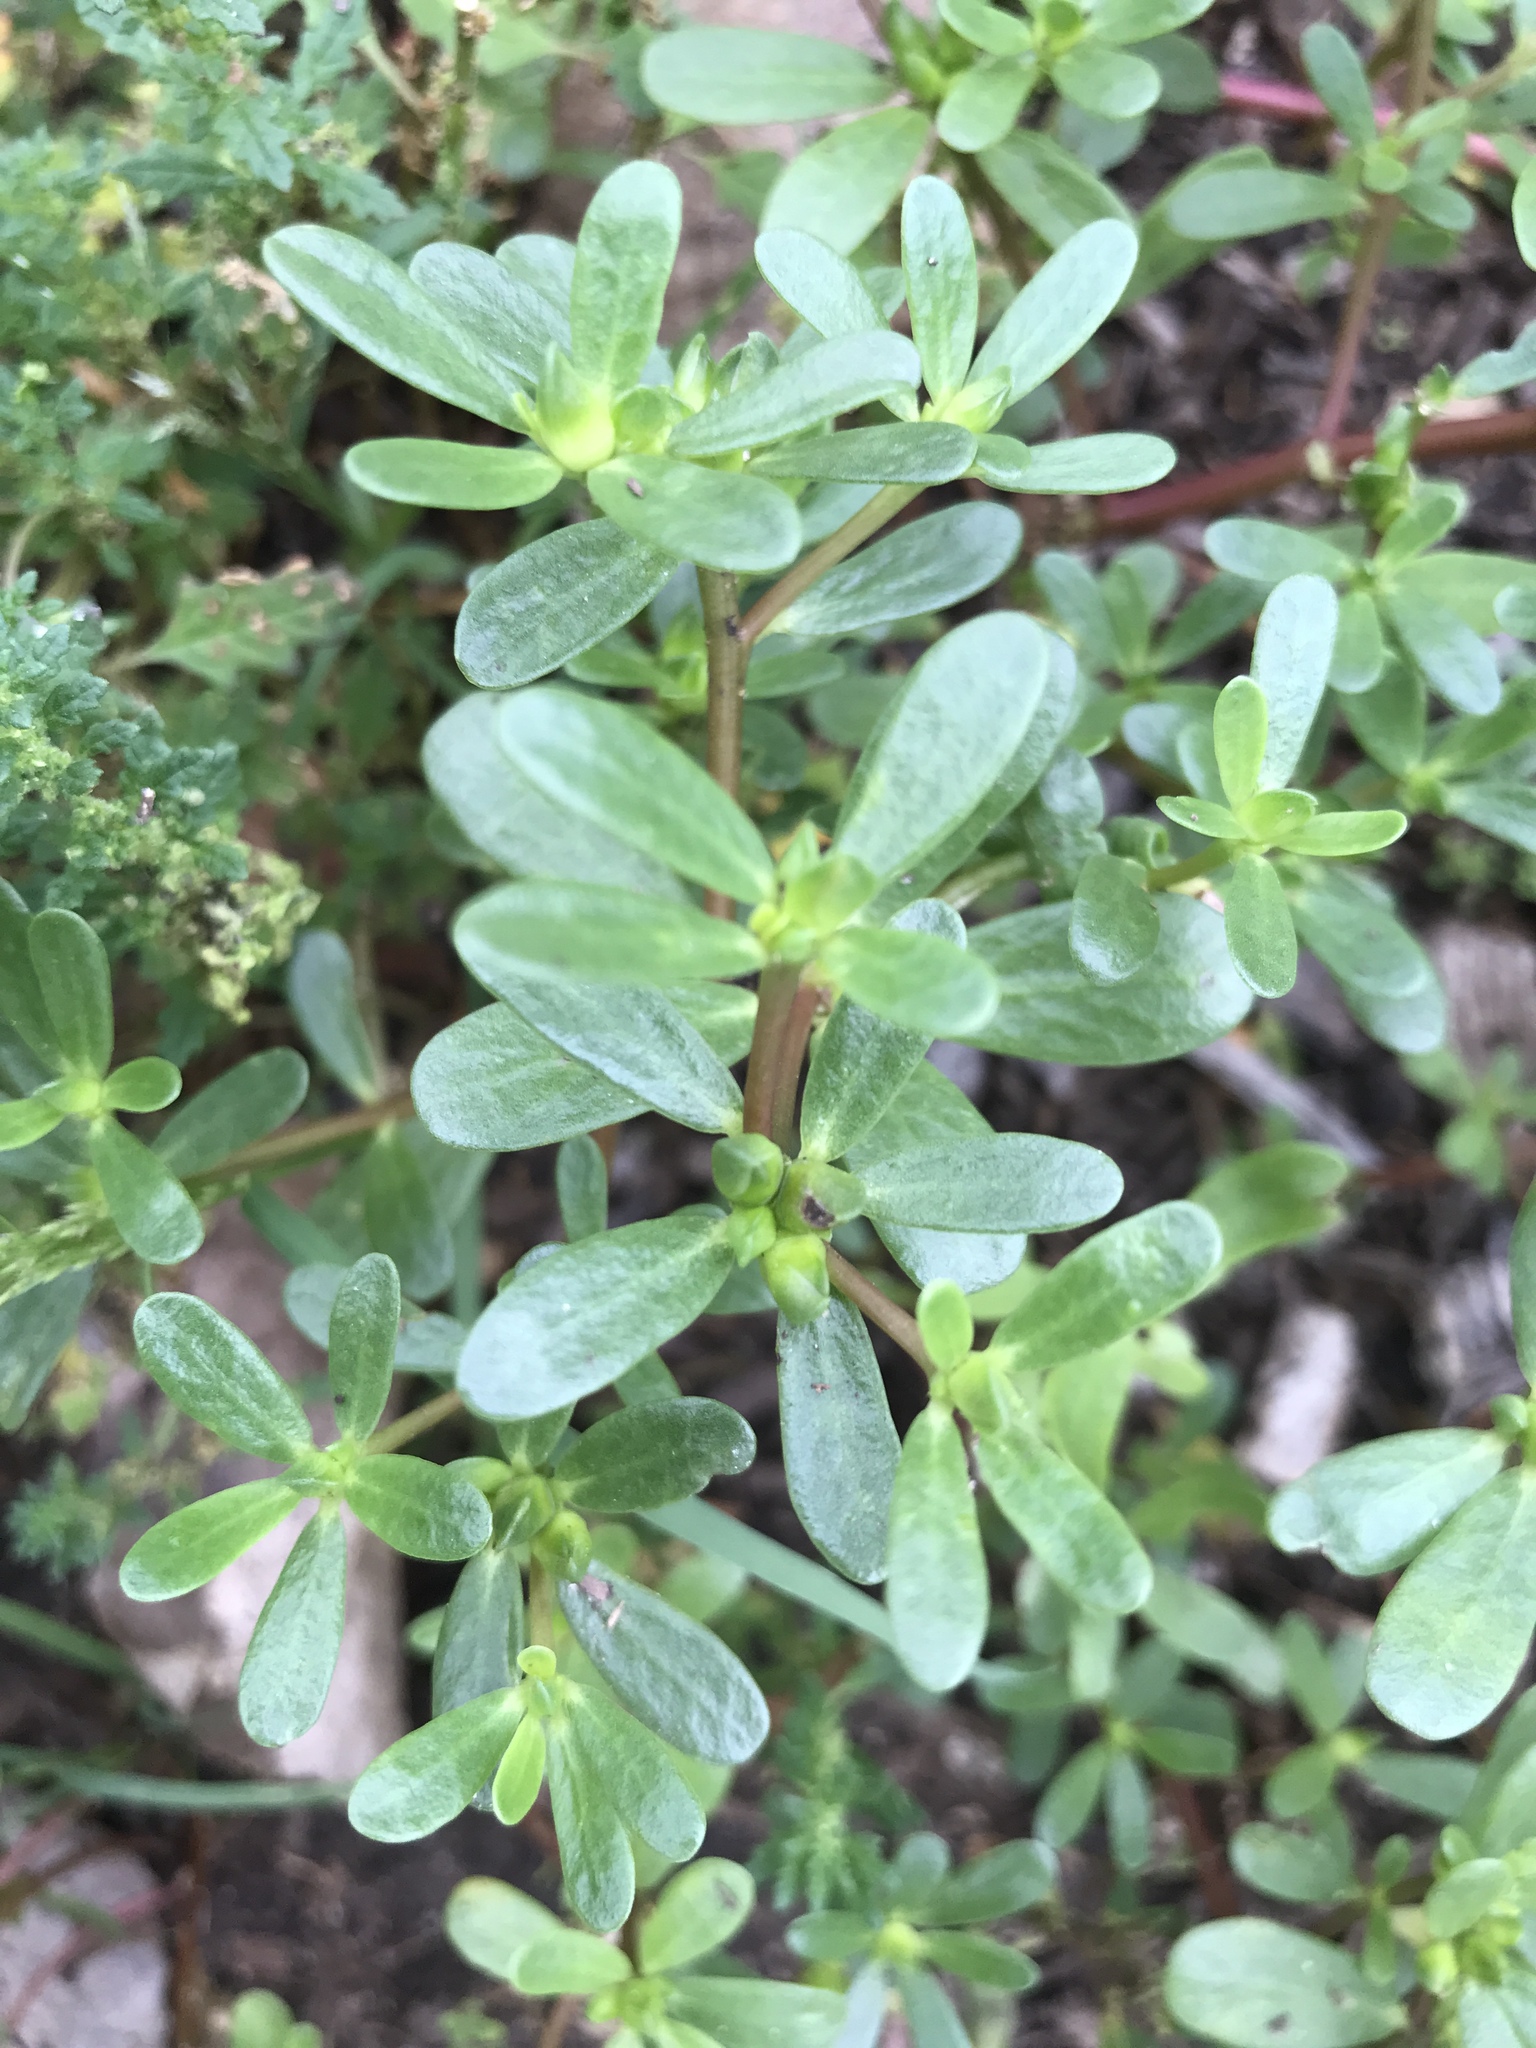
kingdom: Plantae
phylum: Tracheophyta
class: Magnoliopsida
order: Caryophyllales
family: Portulacaceae
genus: Portulaca
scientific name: Portulaca oleracea
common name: Common purslane
